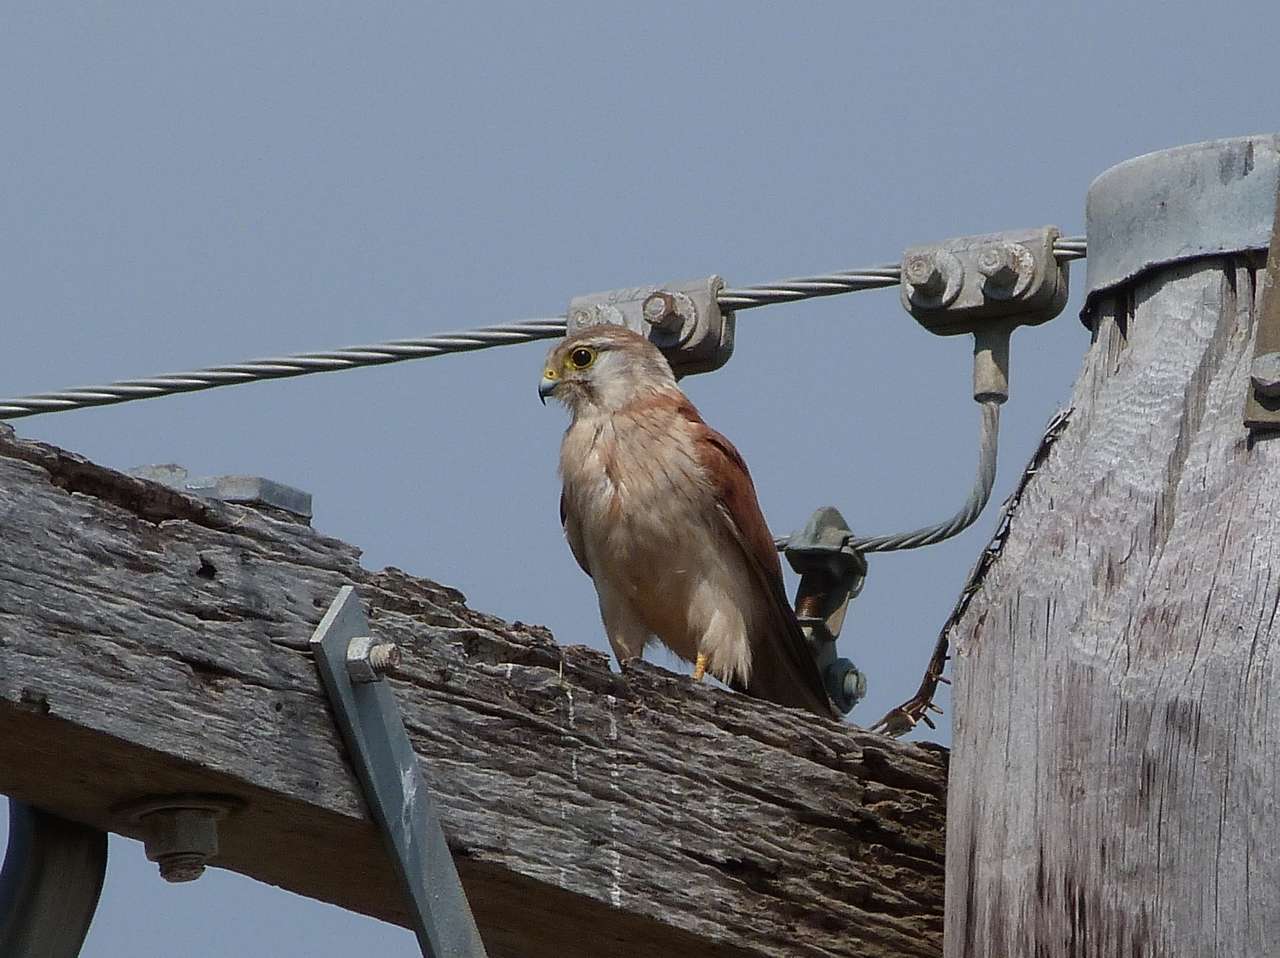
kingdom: Animalia
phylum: Chordata
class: Aves
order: Falconiformes
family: Falconidae
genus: Falco
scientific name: Falco cenchroides
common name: Nankeen kestrel
